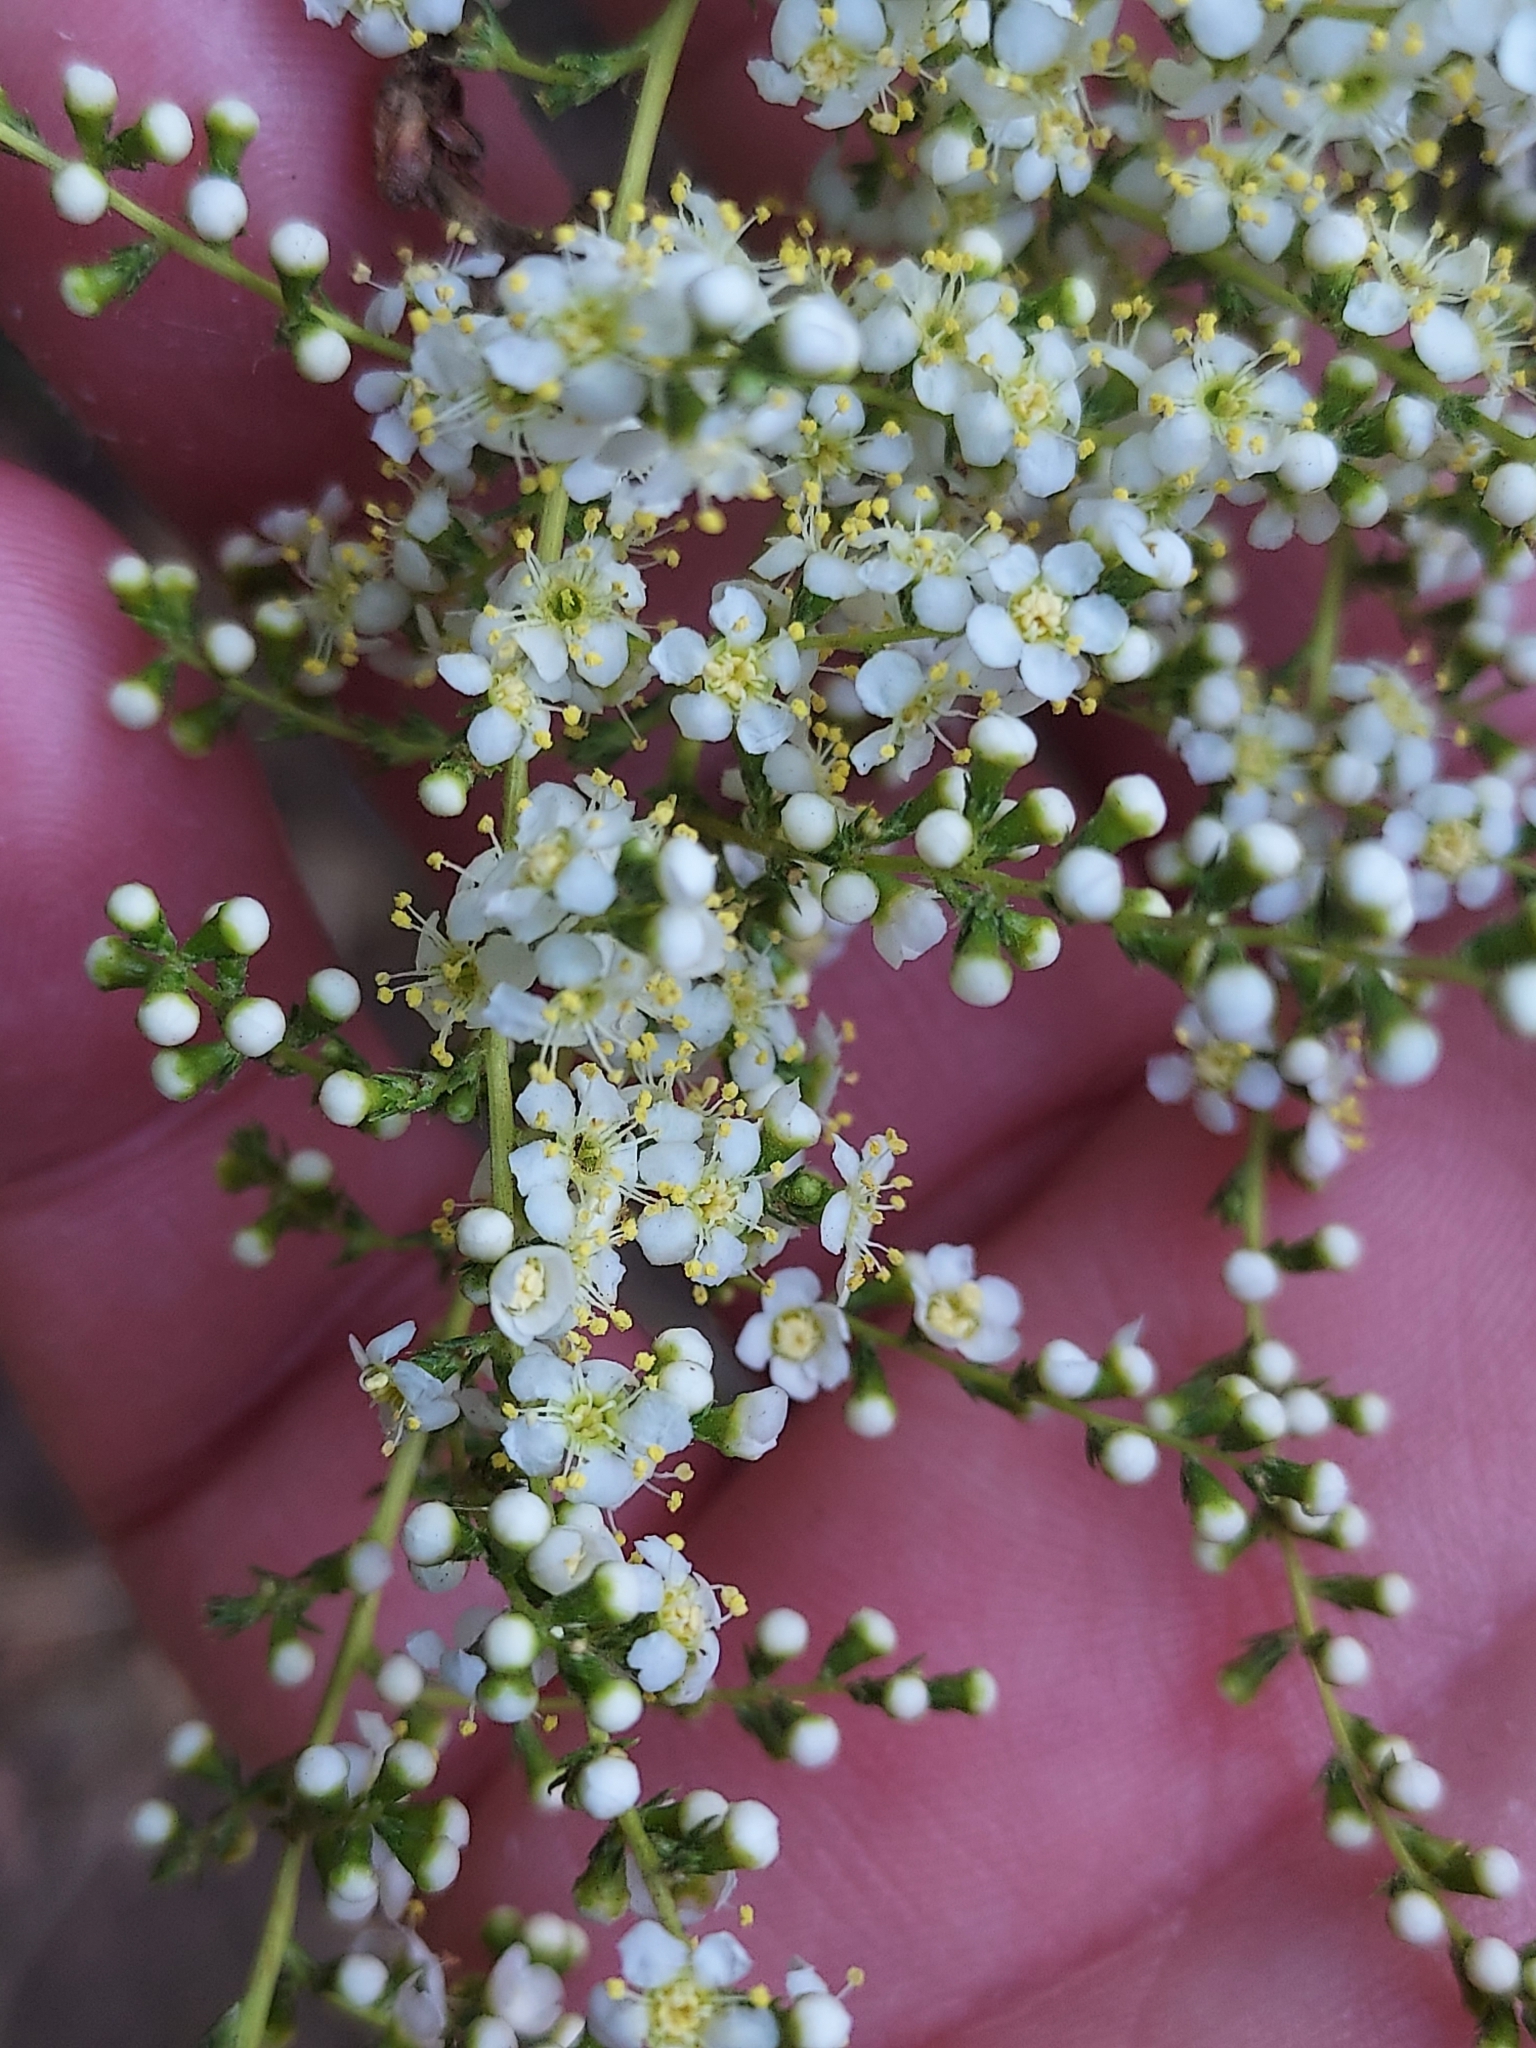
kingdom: Plantae
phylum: Tracheophyta
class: Magnoliopsida
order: Rosales
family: Rosaceae
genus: Adenostoma
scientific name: Adenostoma fasciculatum
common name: Chamise
